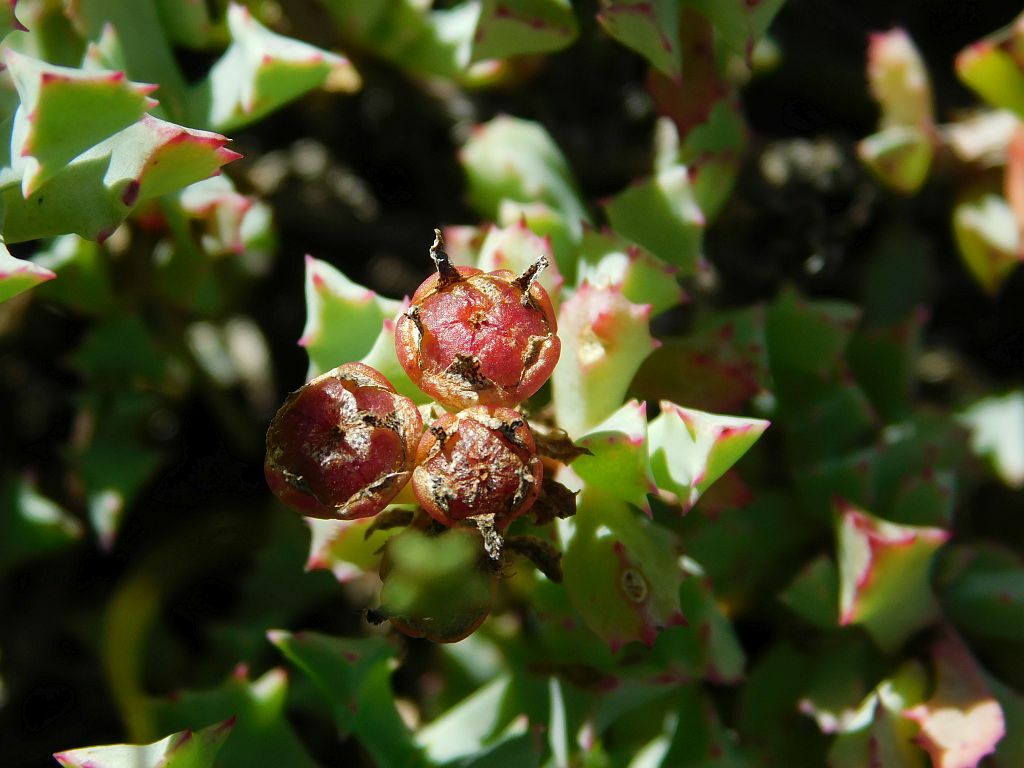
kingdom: Plantae
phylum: Tracheophyta
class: Magnoliopsida
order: Caryophyllales
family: Aizoaceae
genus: Oscularia
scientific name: Oscularia deltoides
